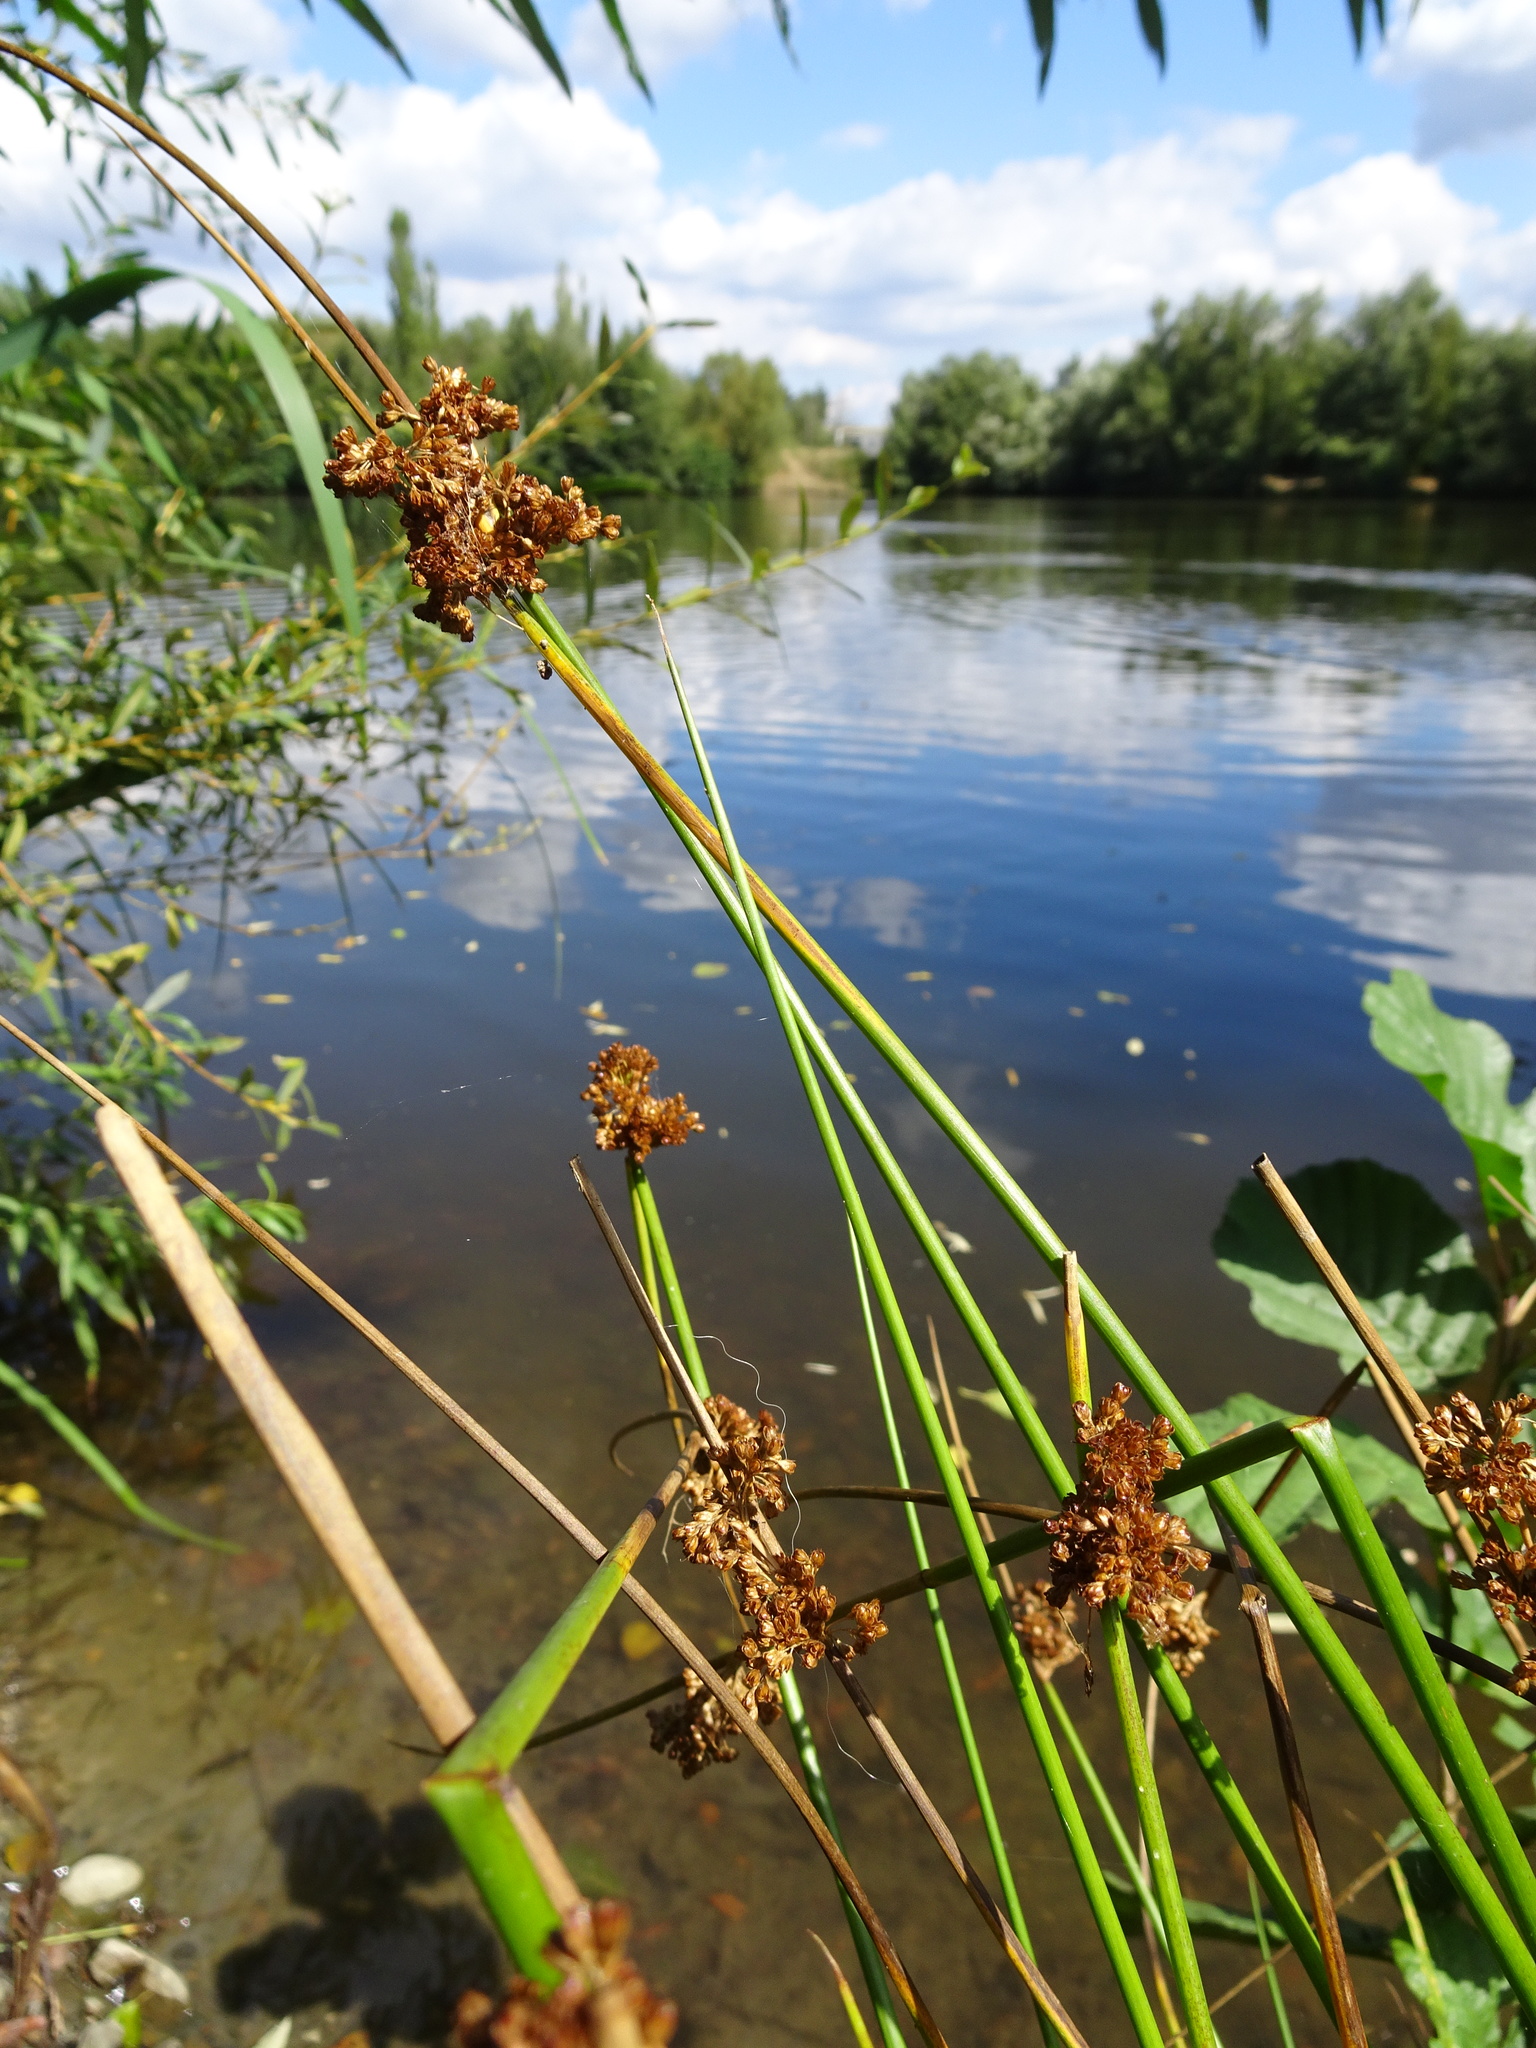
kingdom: Plantae
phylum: Tracheophyta
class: Liliopsida
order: Poales
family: Juncaceae
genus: Juncus
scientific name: Juncus effusus
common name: Soft rush
